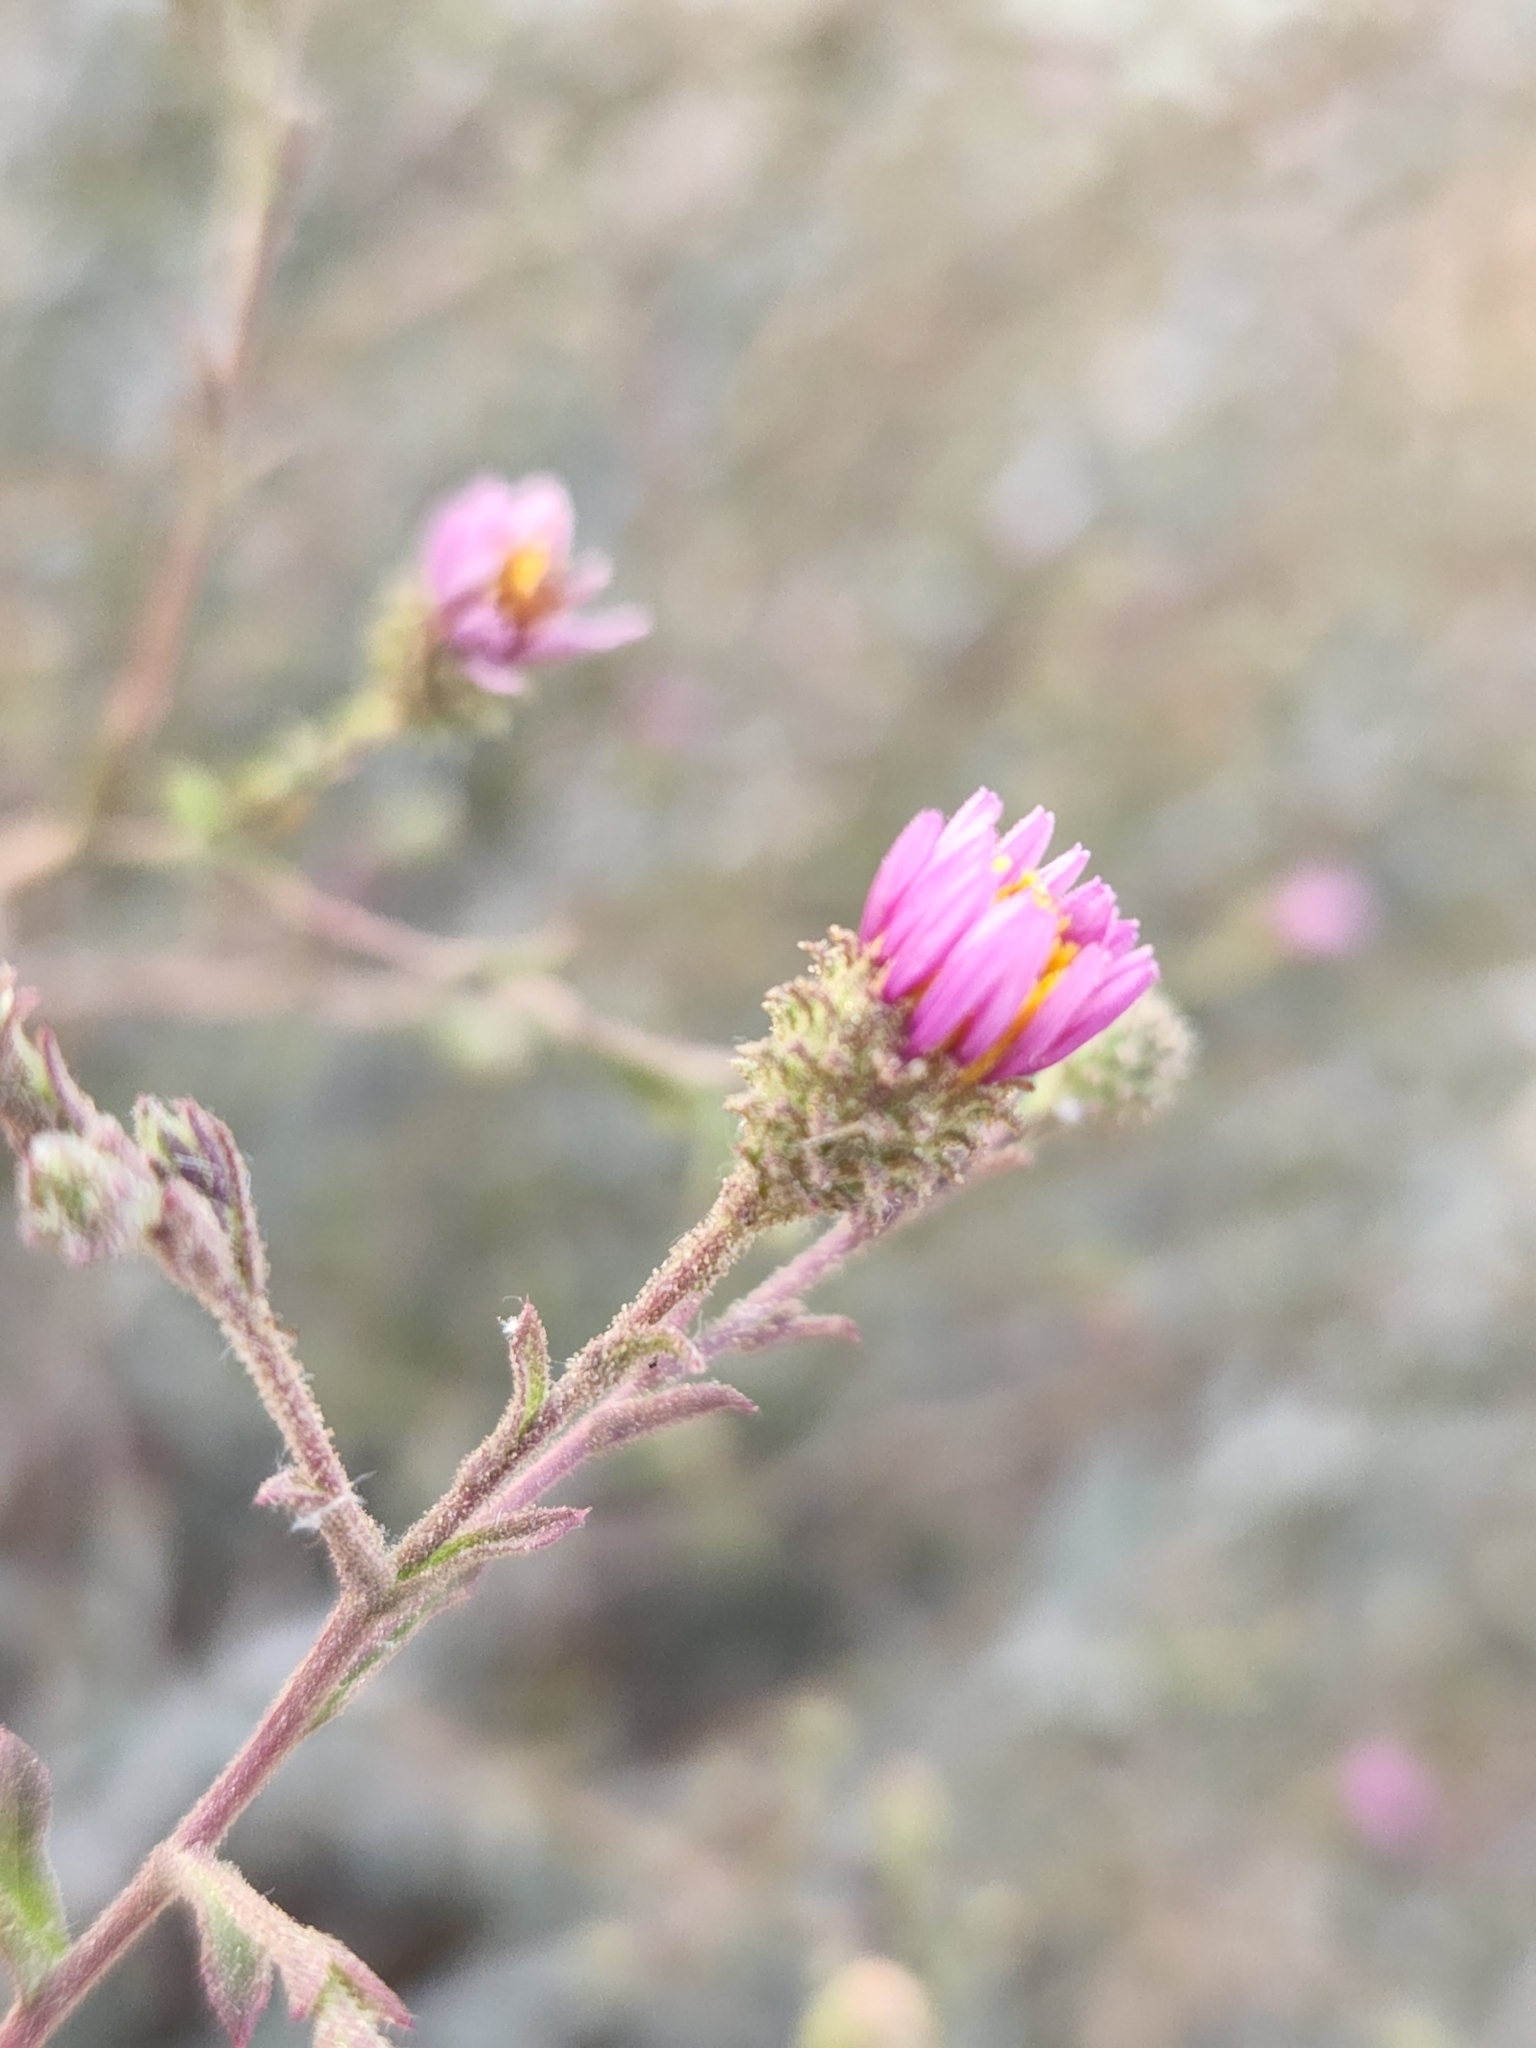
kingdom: Plantae
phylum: Tracheophyta
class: Magnoliopsida
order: Asterales
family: Asteraceae
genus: Corethrogyne
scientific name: Corethrogyne filaginifolia
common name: Sand-aster
